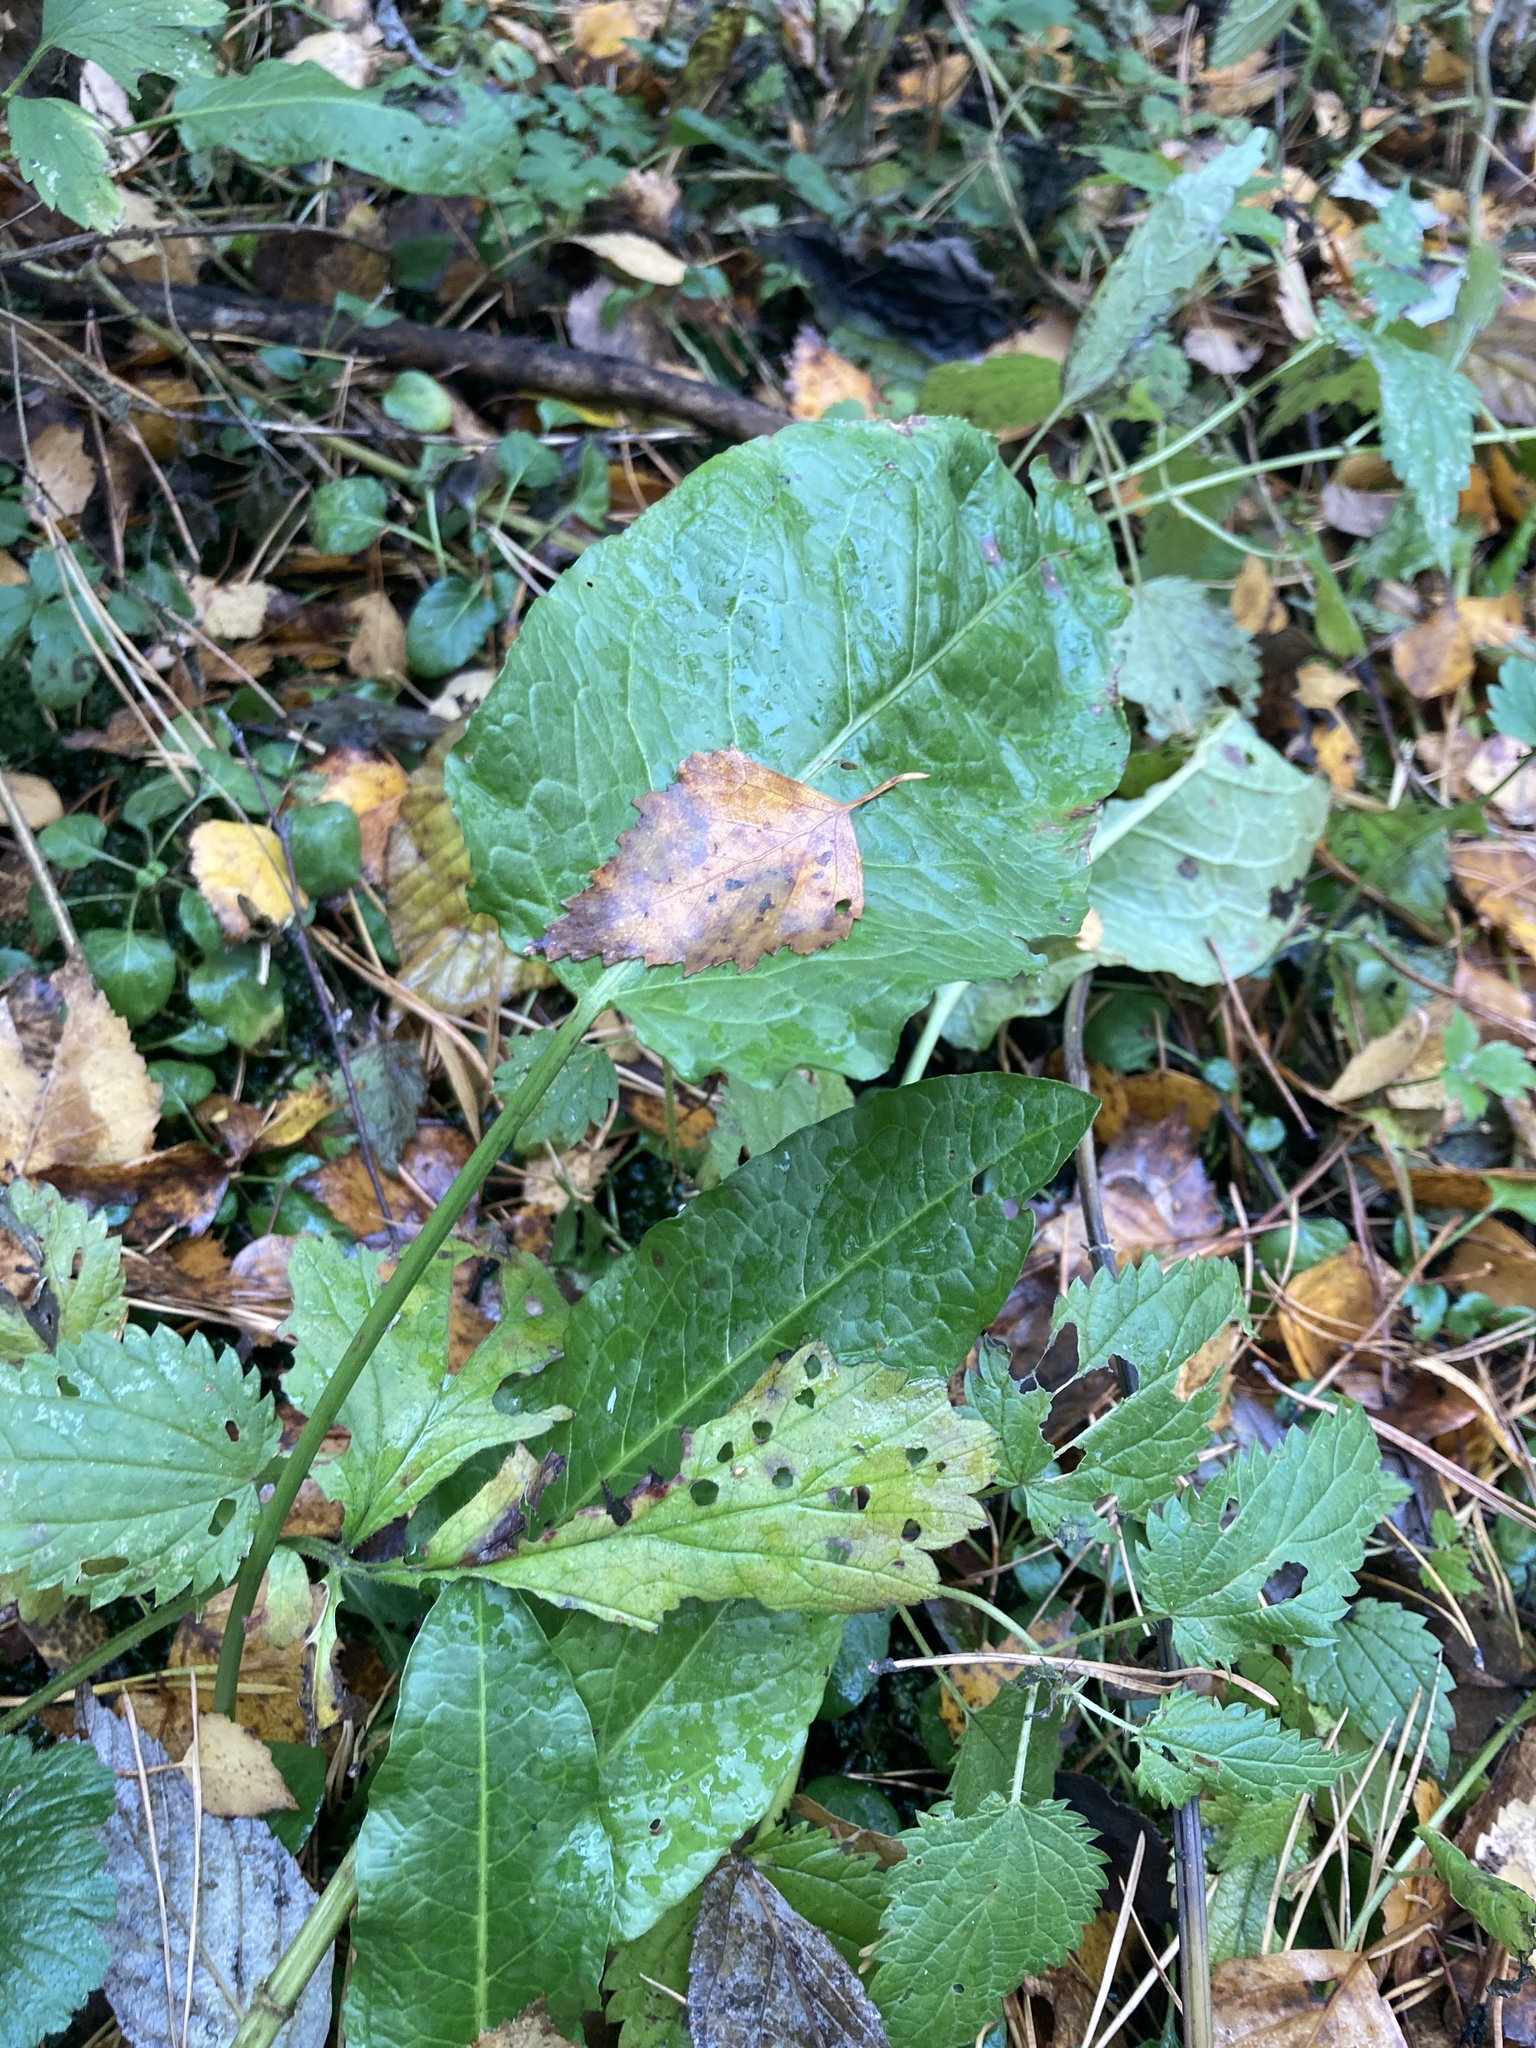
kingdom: Plantae
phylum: Tracheophyta
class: Magnoliopsida
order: Caryophyllales
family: Polygonaceae
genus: Rumex
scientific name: Rumex obtusifolius
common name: Bitter dock
